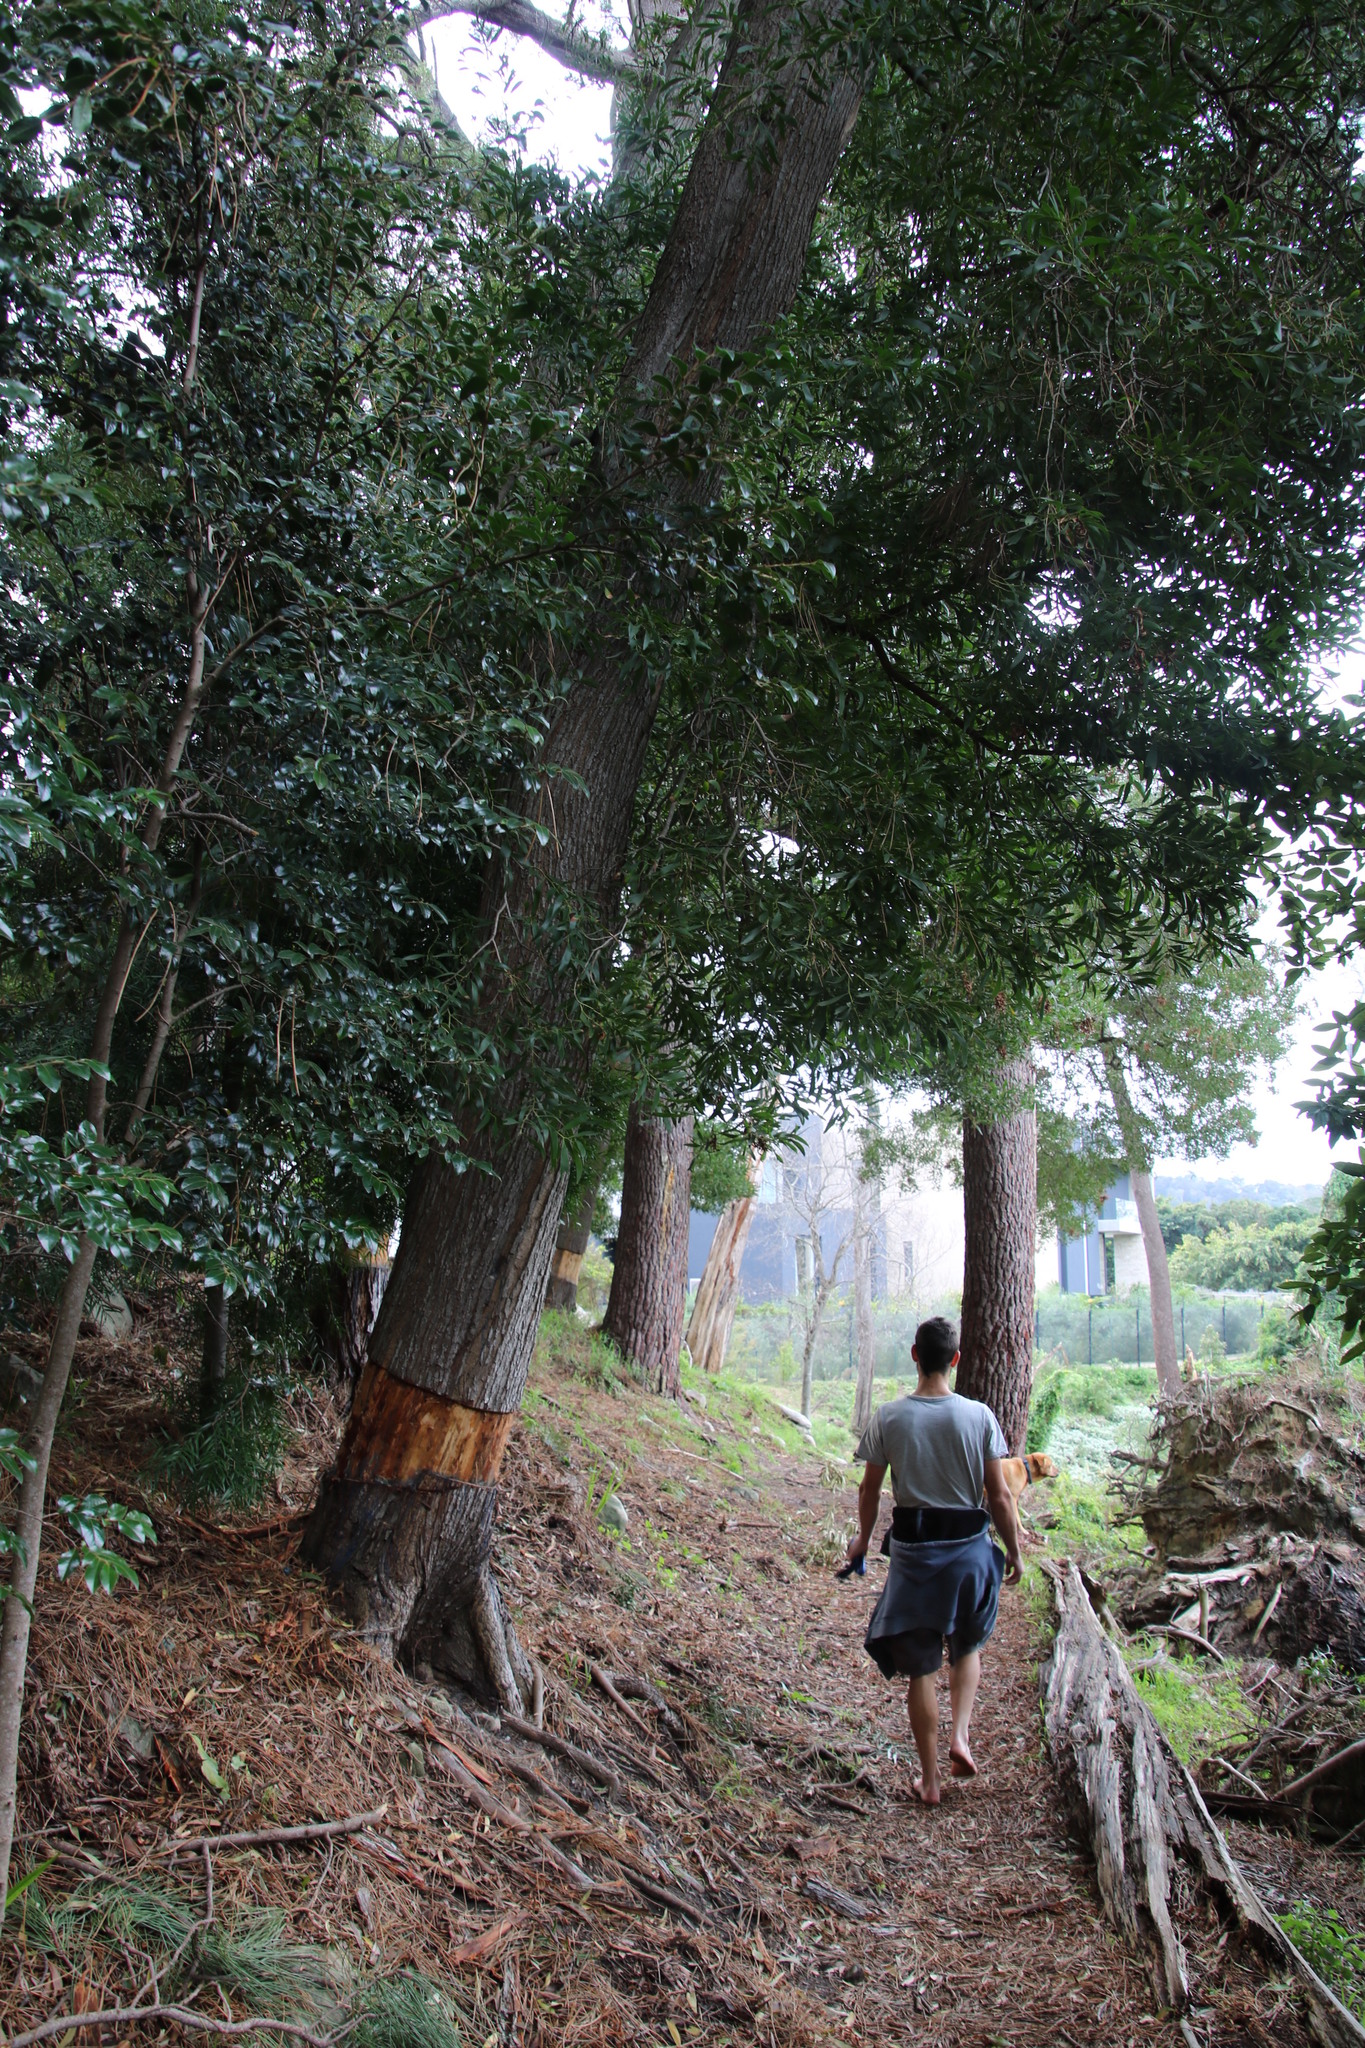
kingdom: Plantae
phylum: Tracheophyta
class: Magnoliopsida
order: Fabales
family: Fabaceae
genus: Acacia
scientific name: Acacia melanoxylon
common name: Blackwood
